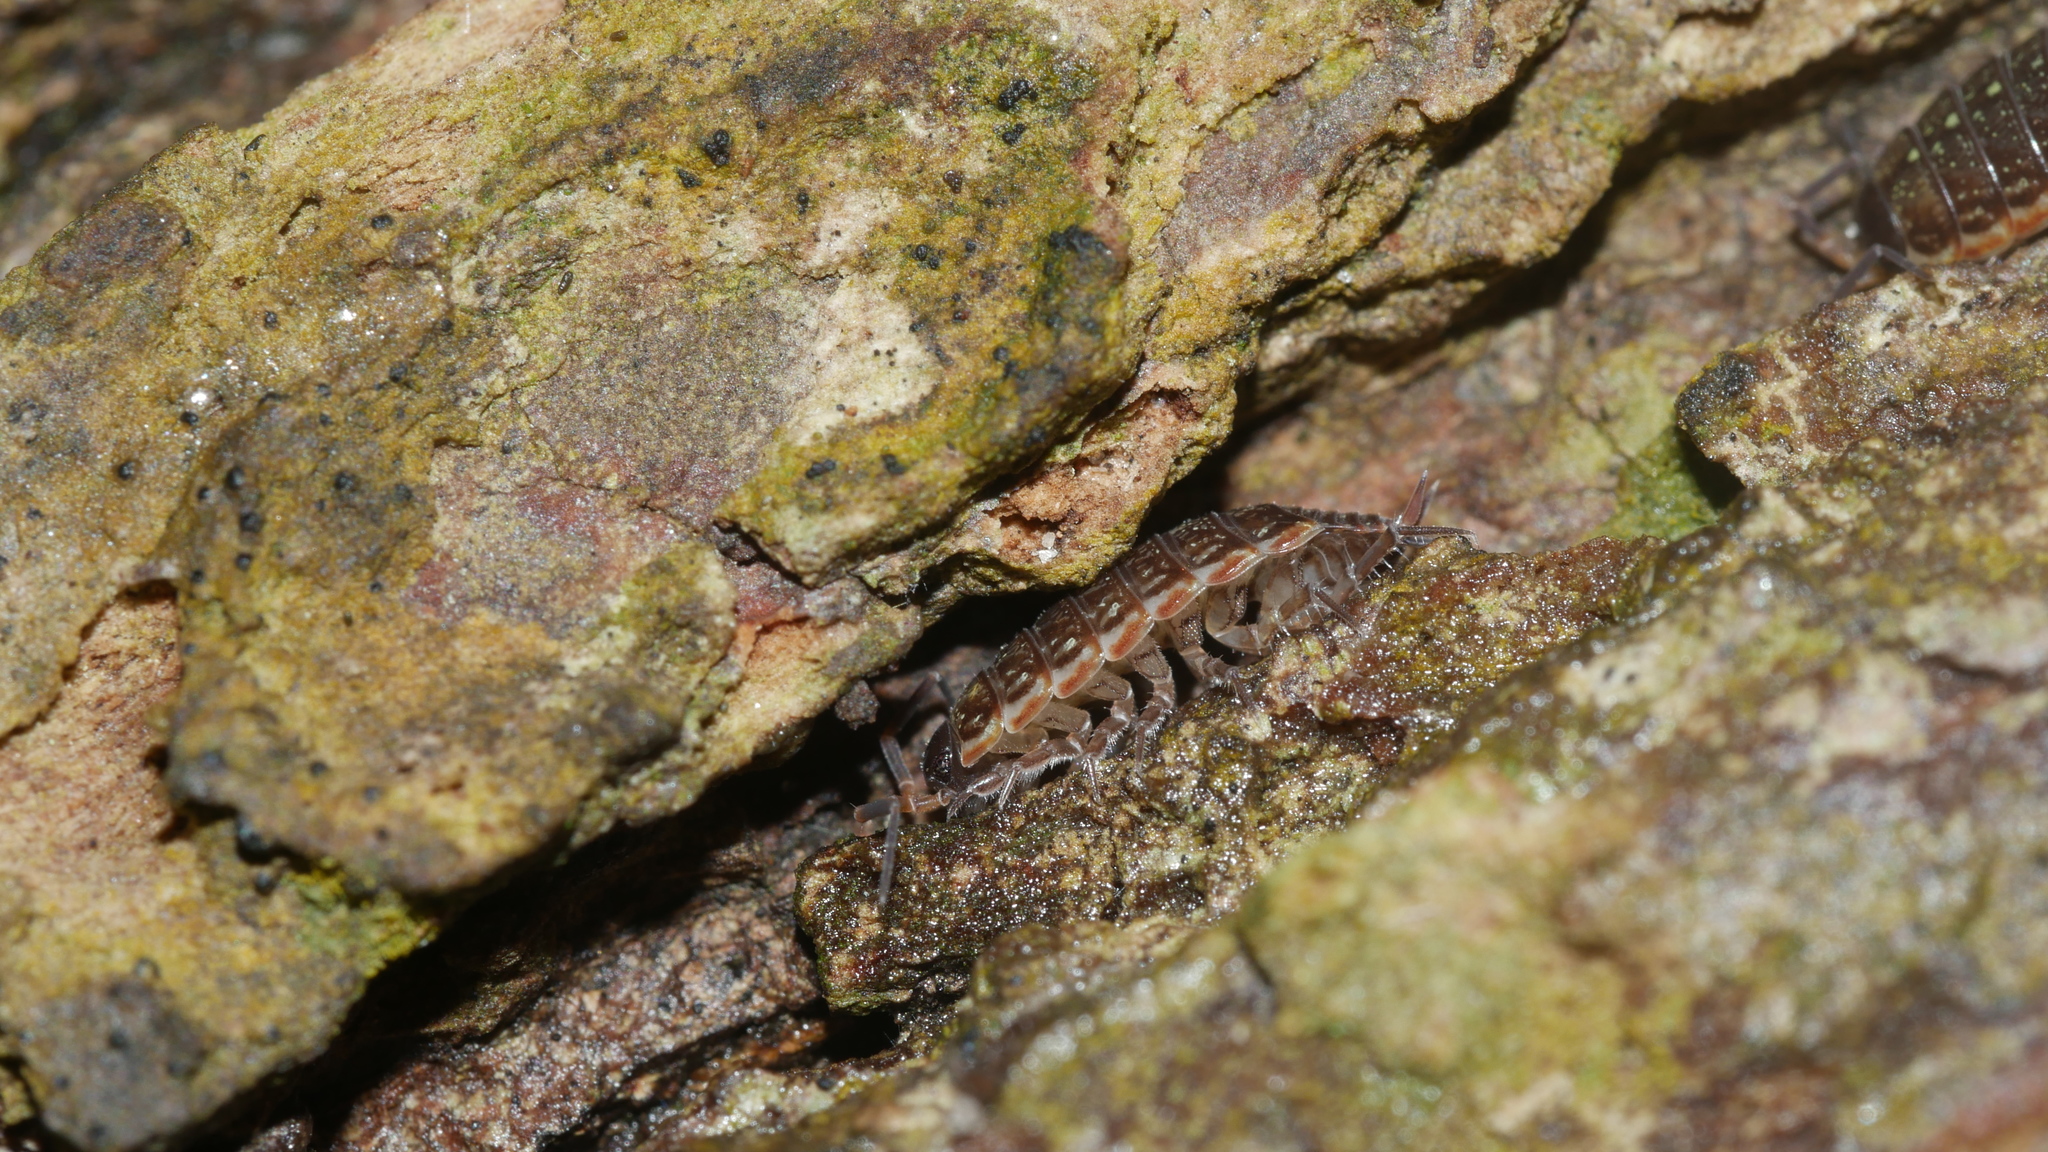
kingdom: Animalia
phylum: Arthropoda
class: Malacostraca
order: Isopoda
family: Philosciidae
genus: Philoscia
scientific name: Philoscia muscorum
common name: Common striped woodlouse
